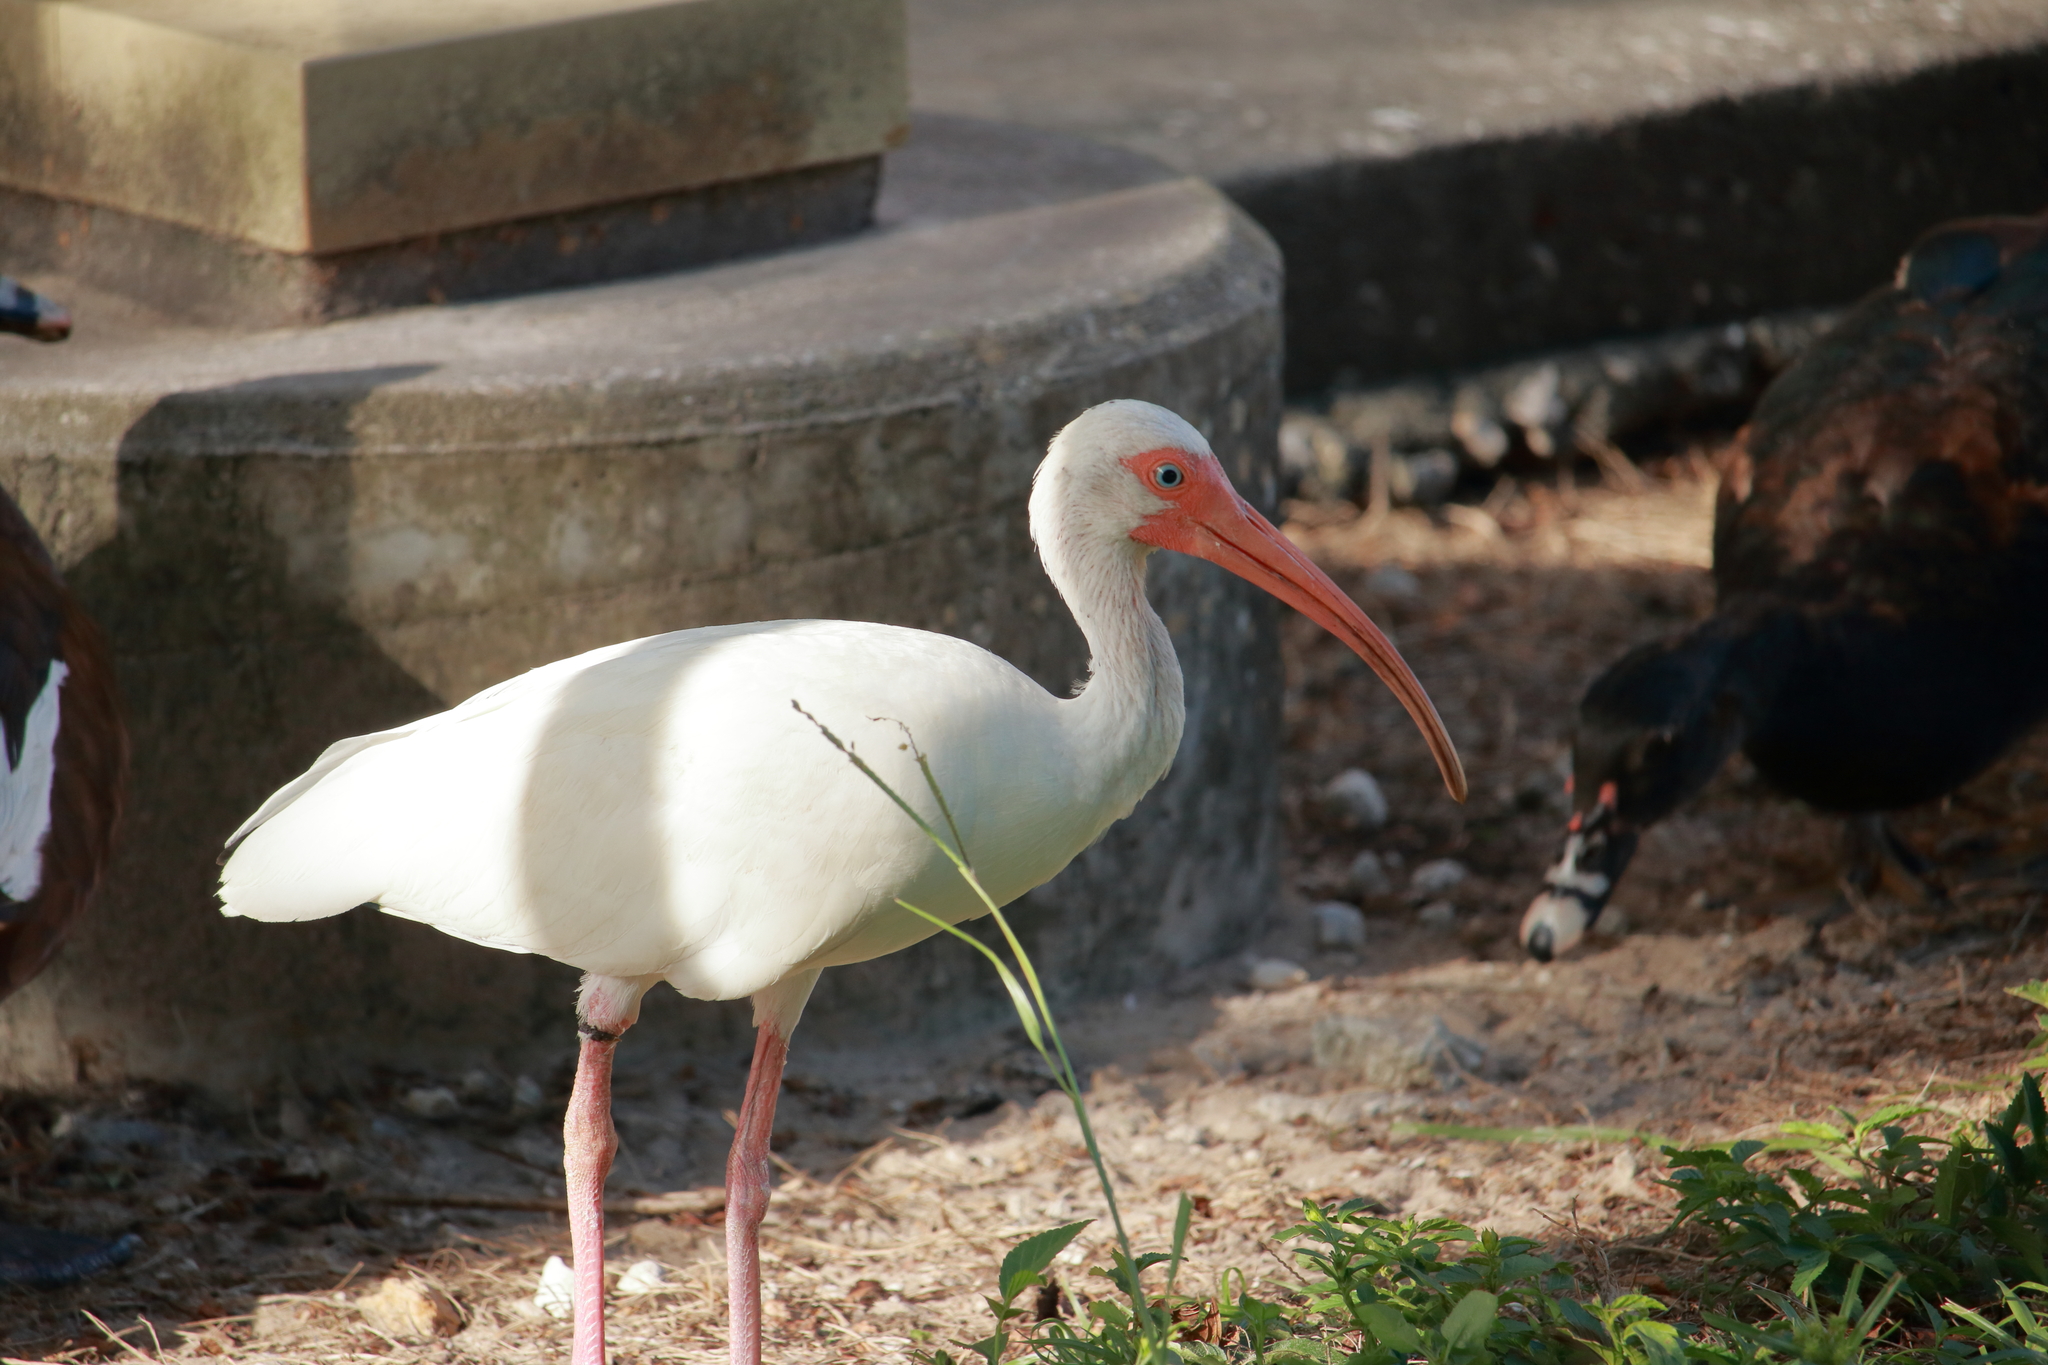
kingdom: Animalia
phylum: Chordata
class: Aves
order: Pelecaniformes
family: Threskiornithidae
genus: Eudocimus
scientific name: Eudocimus albus
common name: White ibis
